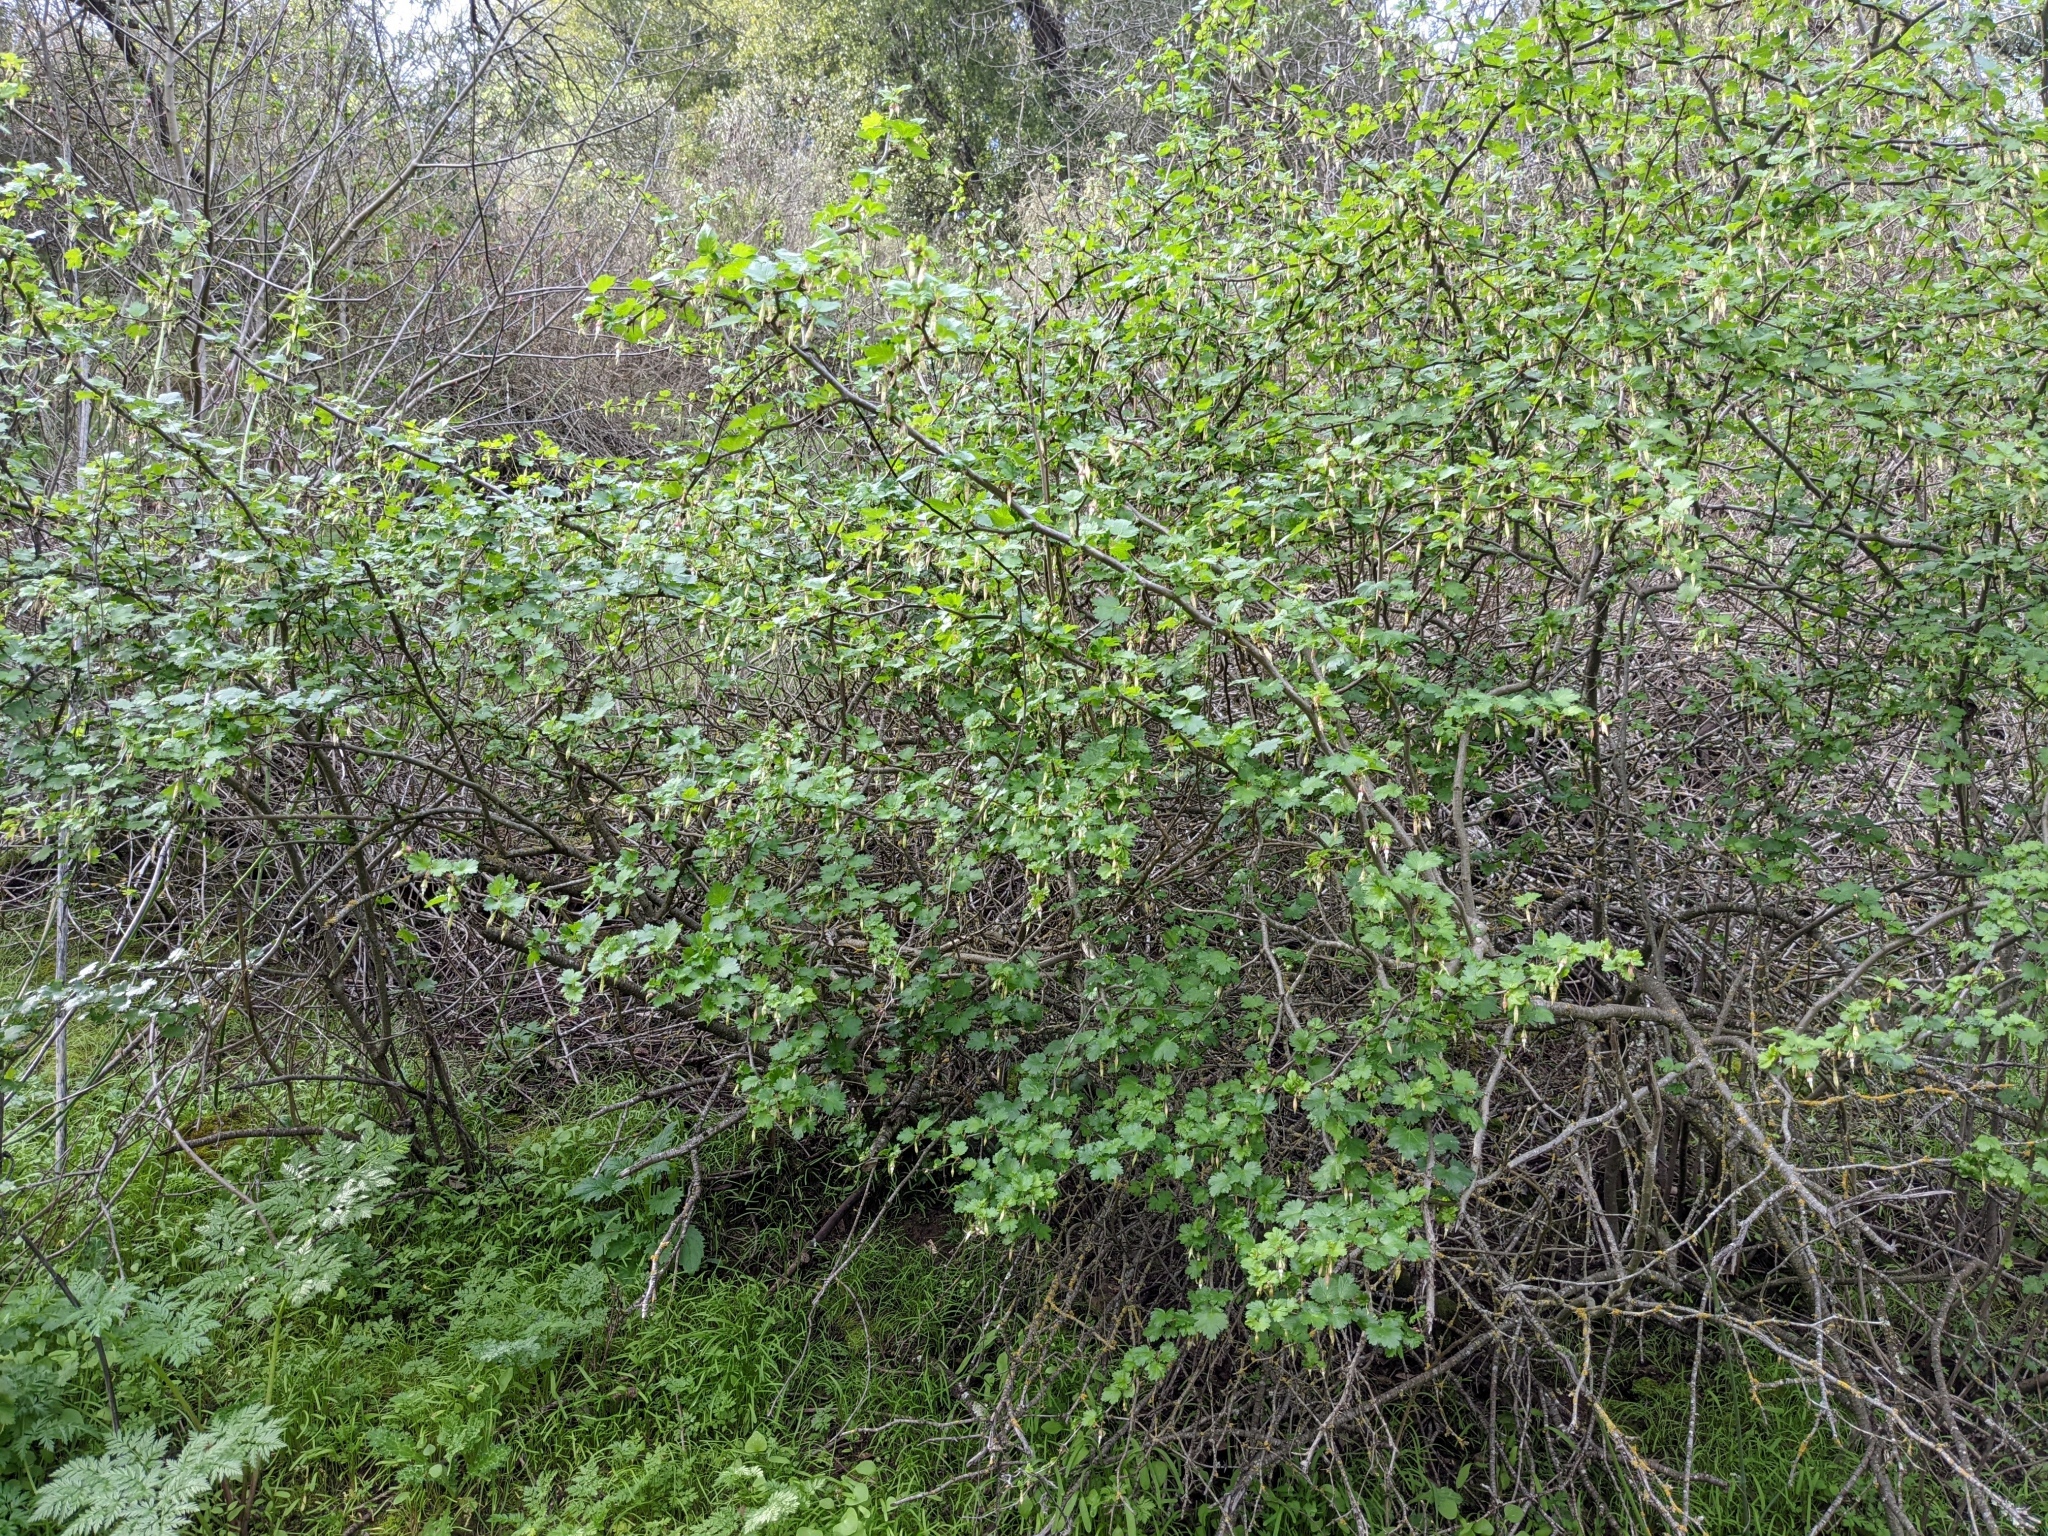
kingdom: Plantae
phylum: Tracheophyta
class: Magnoliopsida
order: Saxifragales
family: Grossulariaceae
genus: Ribes
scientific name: Ribes californicum
